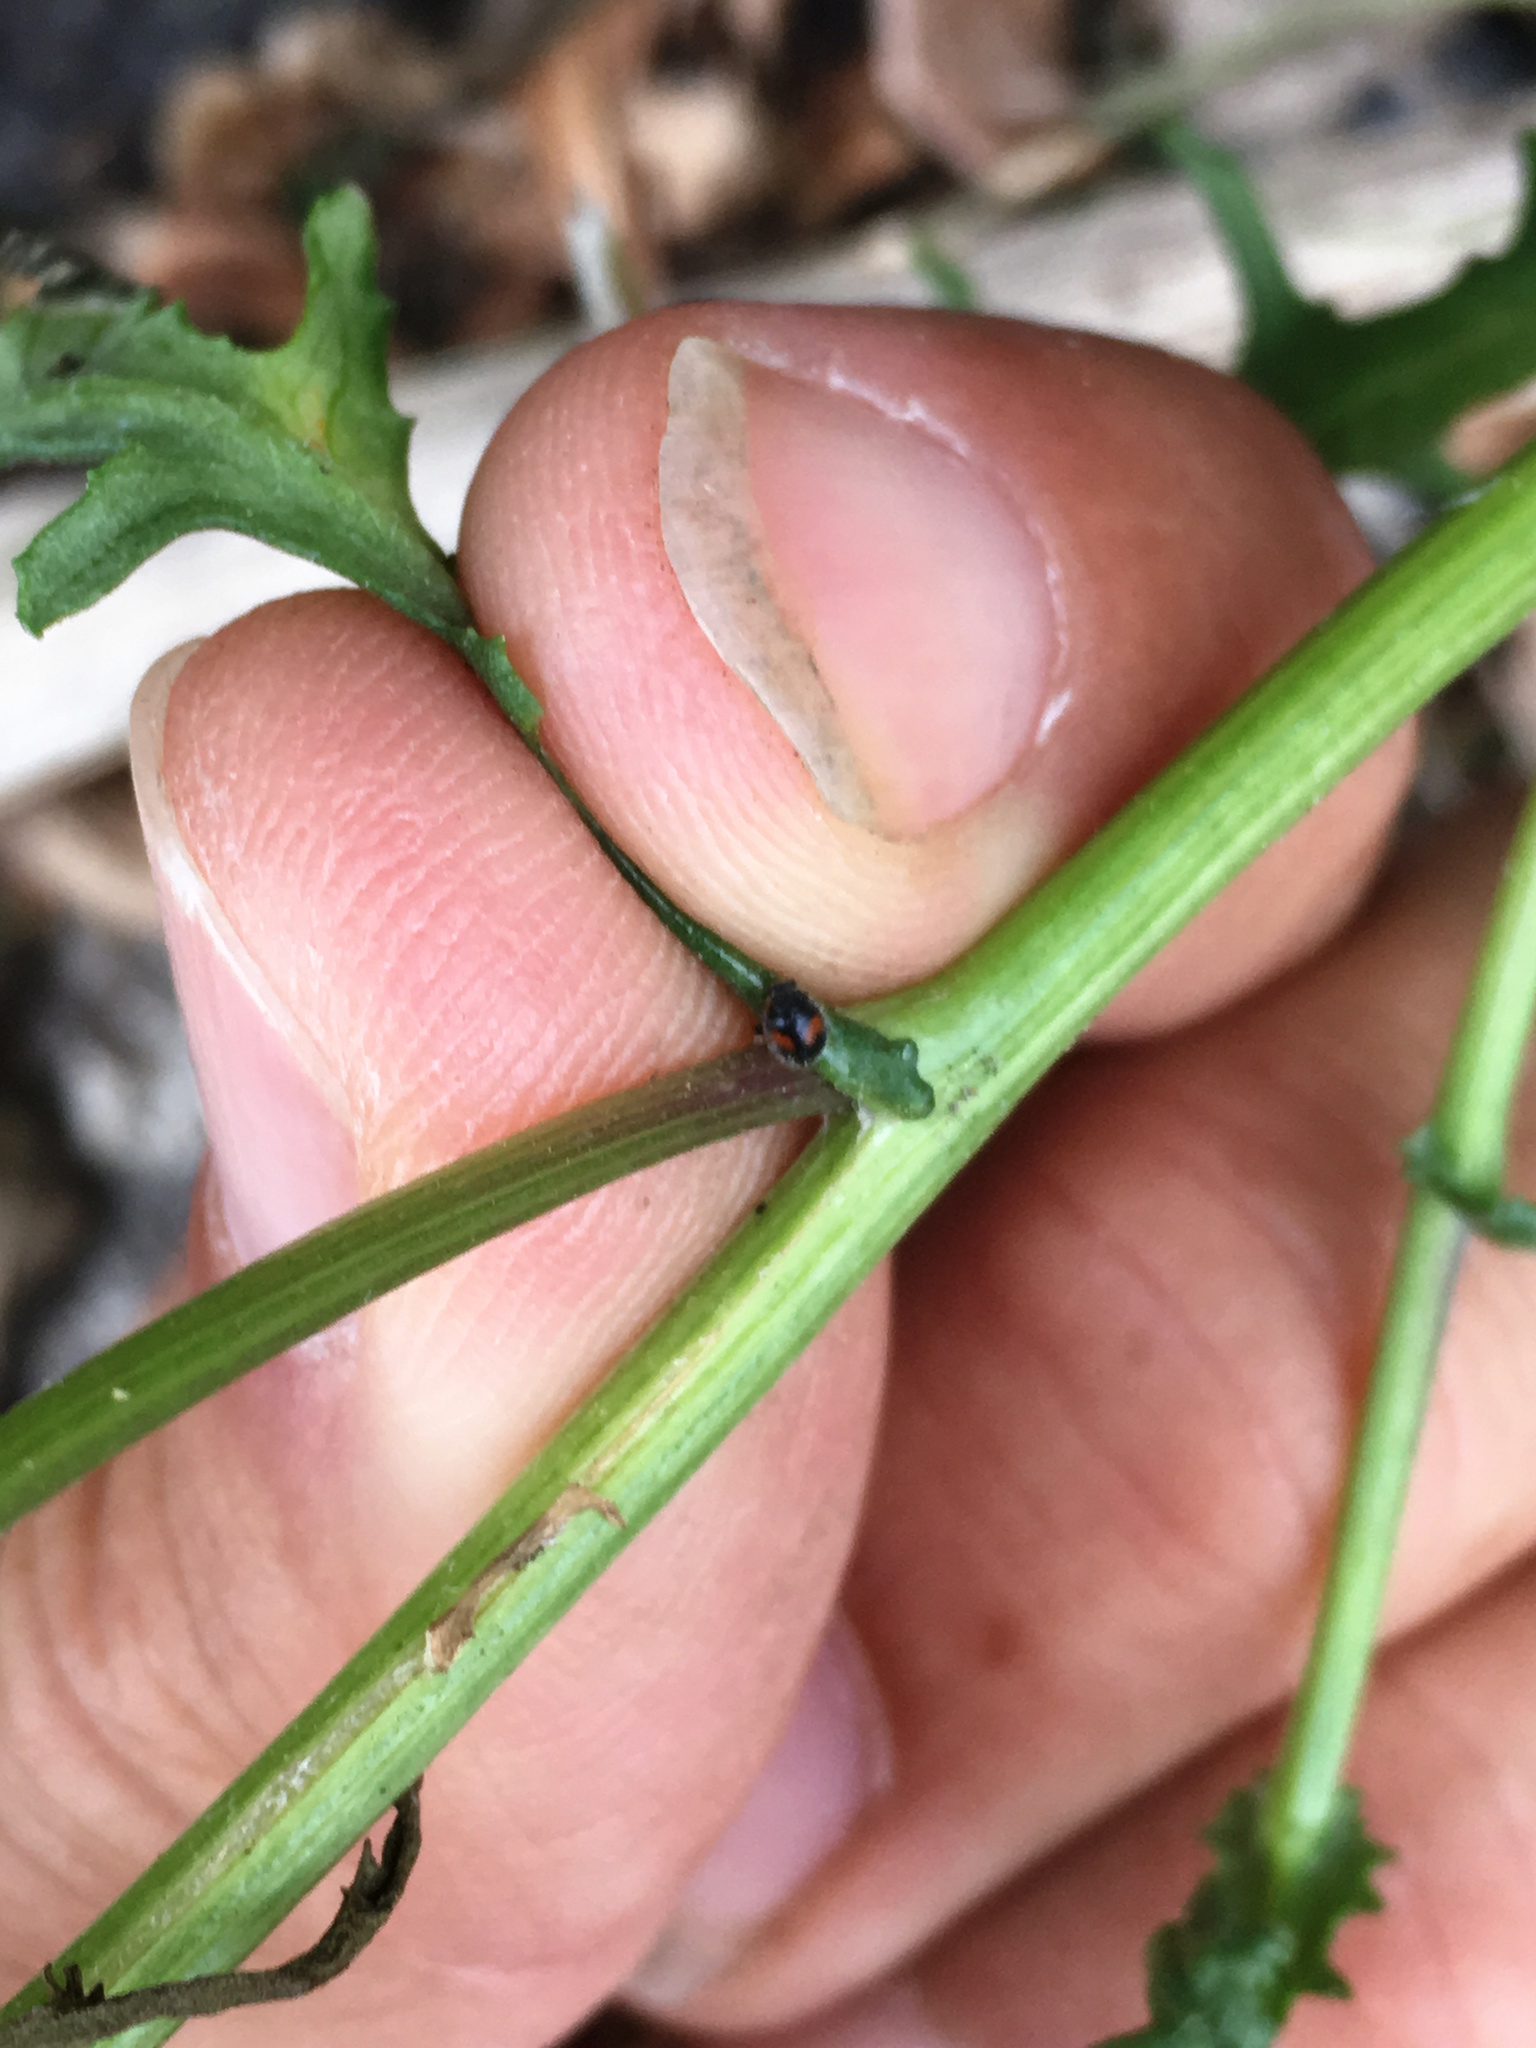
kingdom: Animalia
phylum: Arthropoda
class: Insecta
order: Coleoptera
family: Coccinellidae
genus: Scymnus
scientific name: Scymnus notescens
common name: Minute two-spotted ladybird beetle
